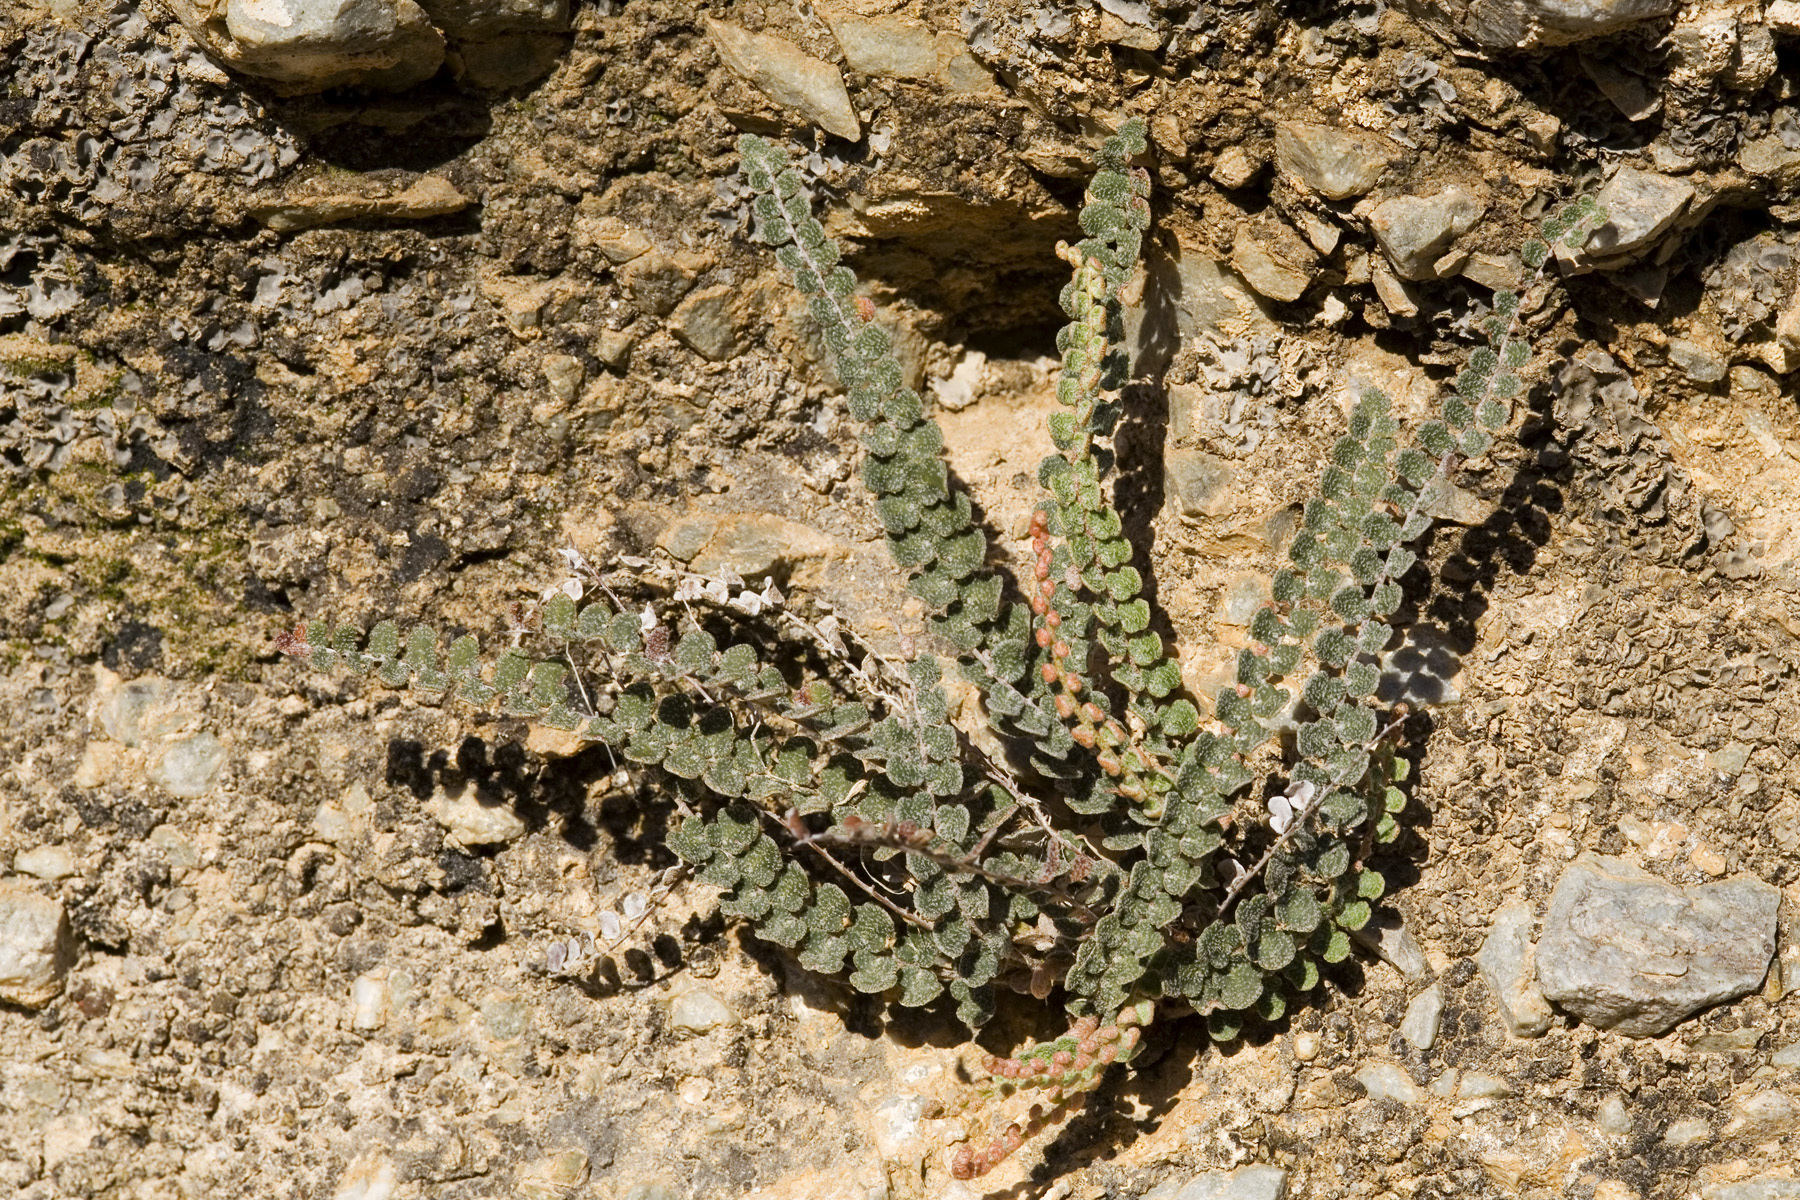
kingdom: Plantae
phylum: Tracheophyta
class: Polypodiopsida
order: Polypodiales
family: Pteridaceae
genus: Astrolepis
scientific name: Astrolepis cochisensis
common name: Scaly cloak fern
